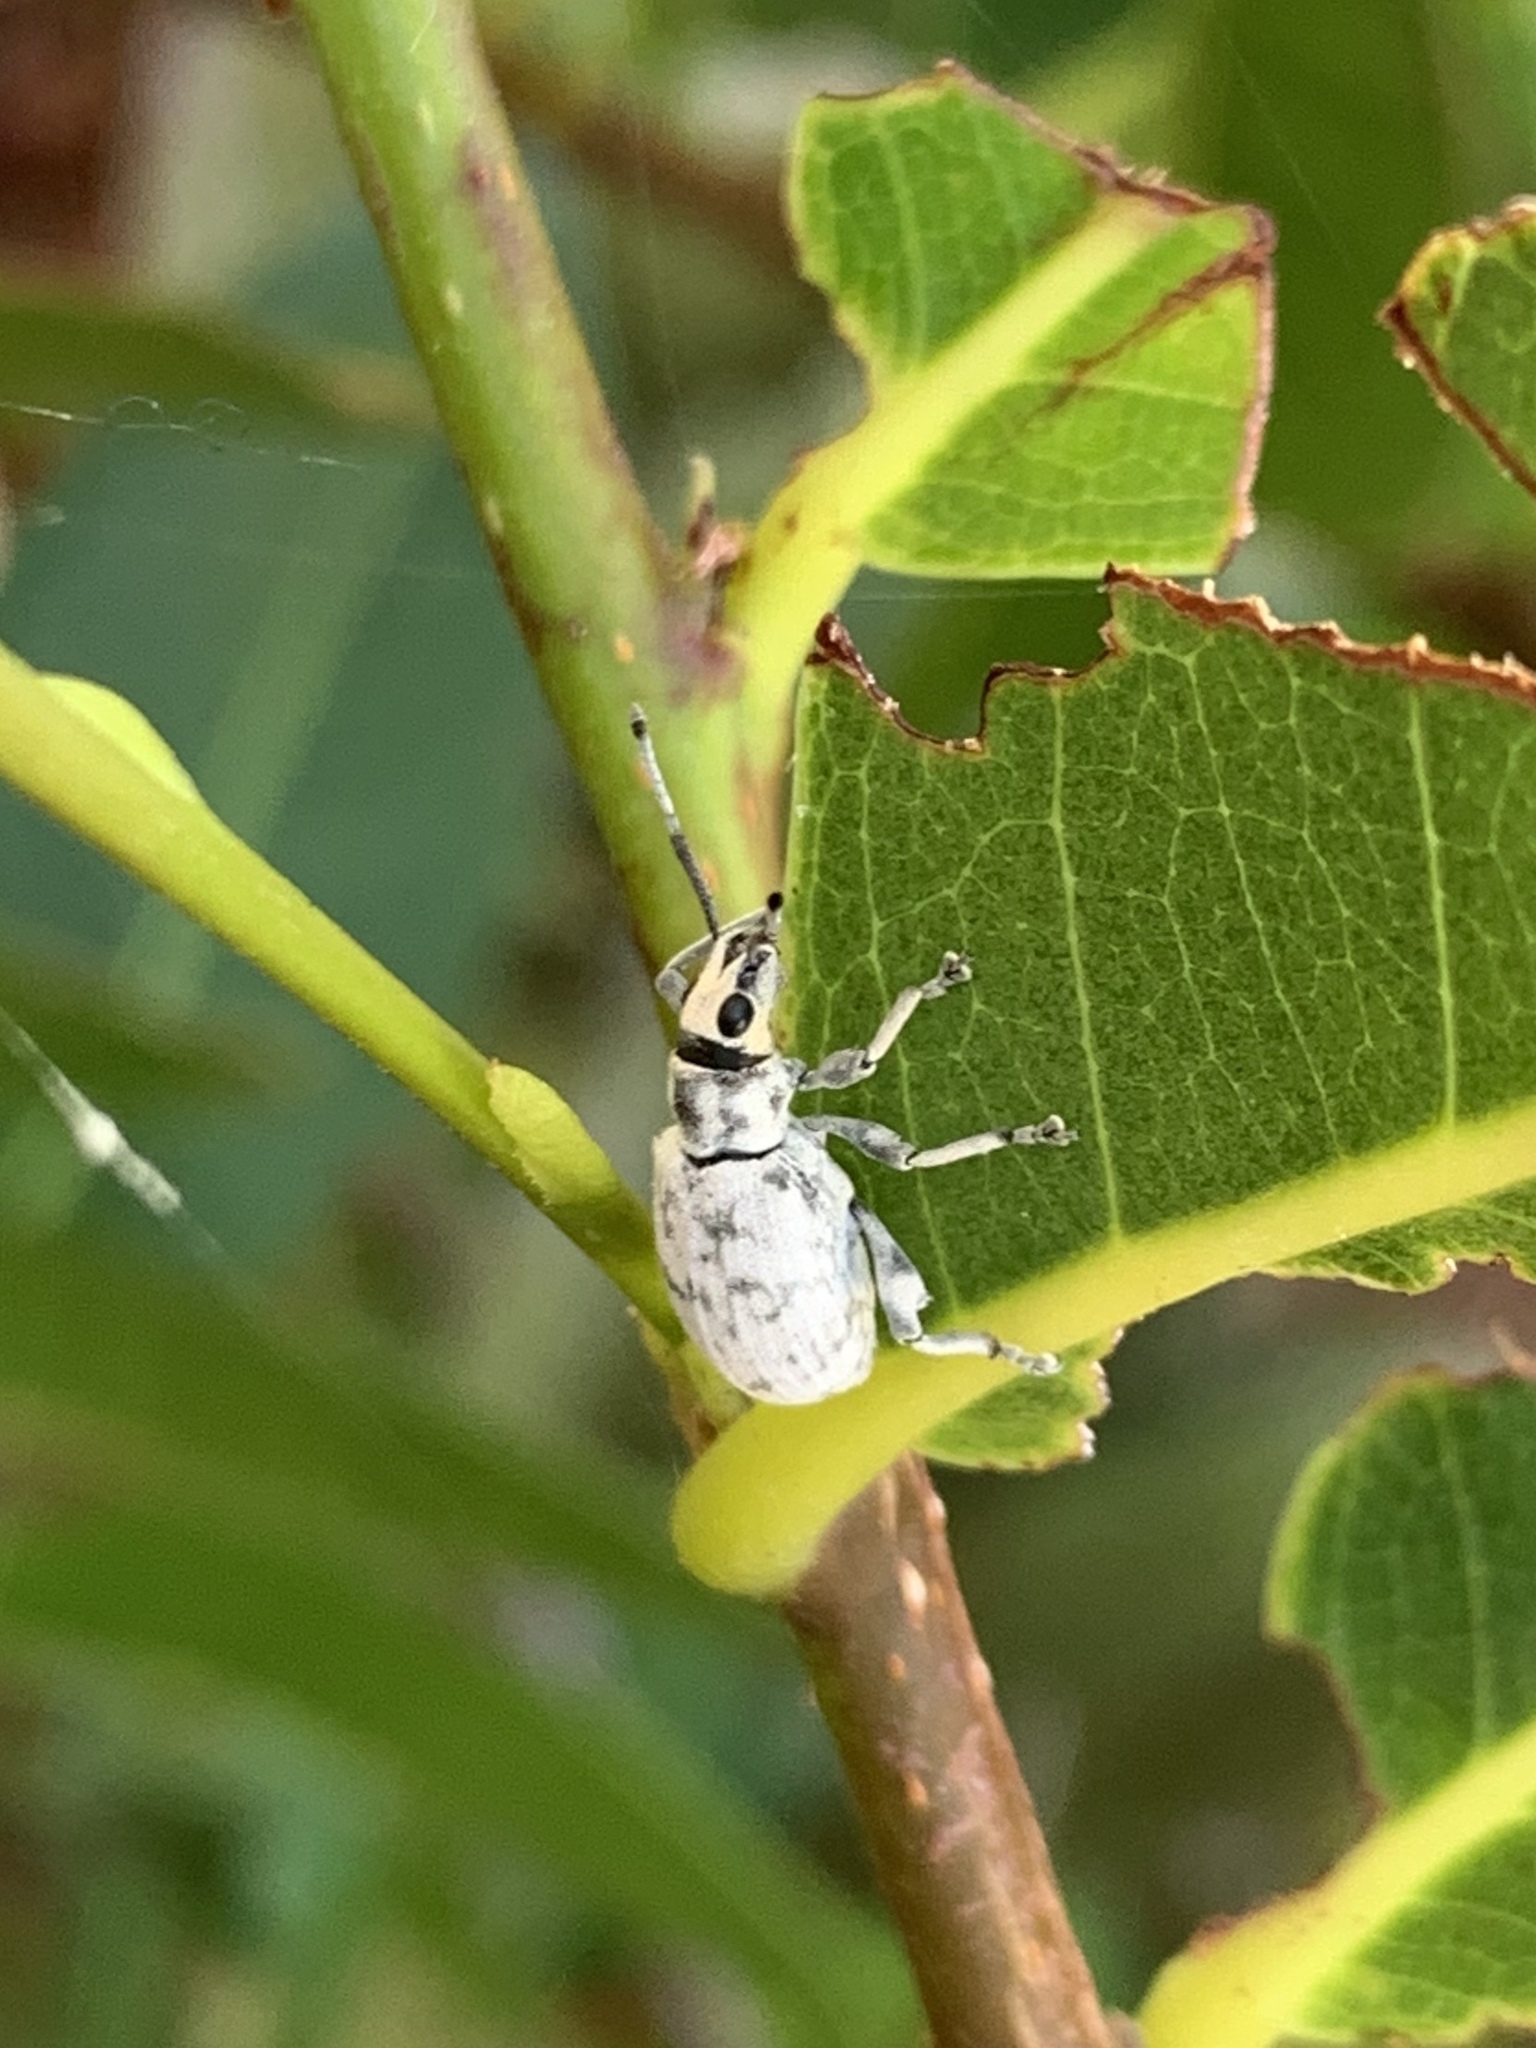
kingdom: Animalia
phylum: Arthropoda
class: Insecta
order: Coleoptera
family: Curculionidae
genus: Myllocerus
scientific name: Myllocerus undecimpustulatus
